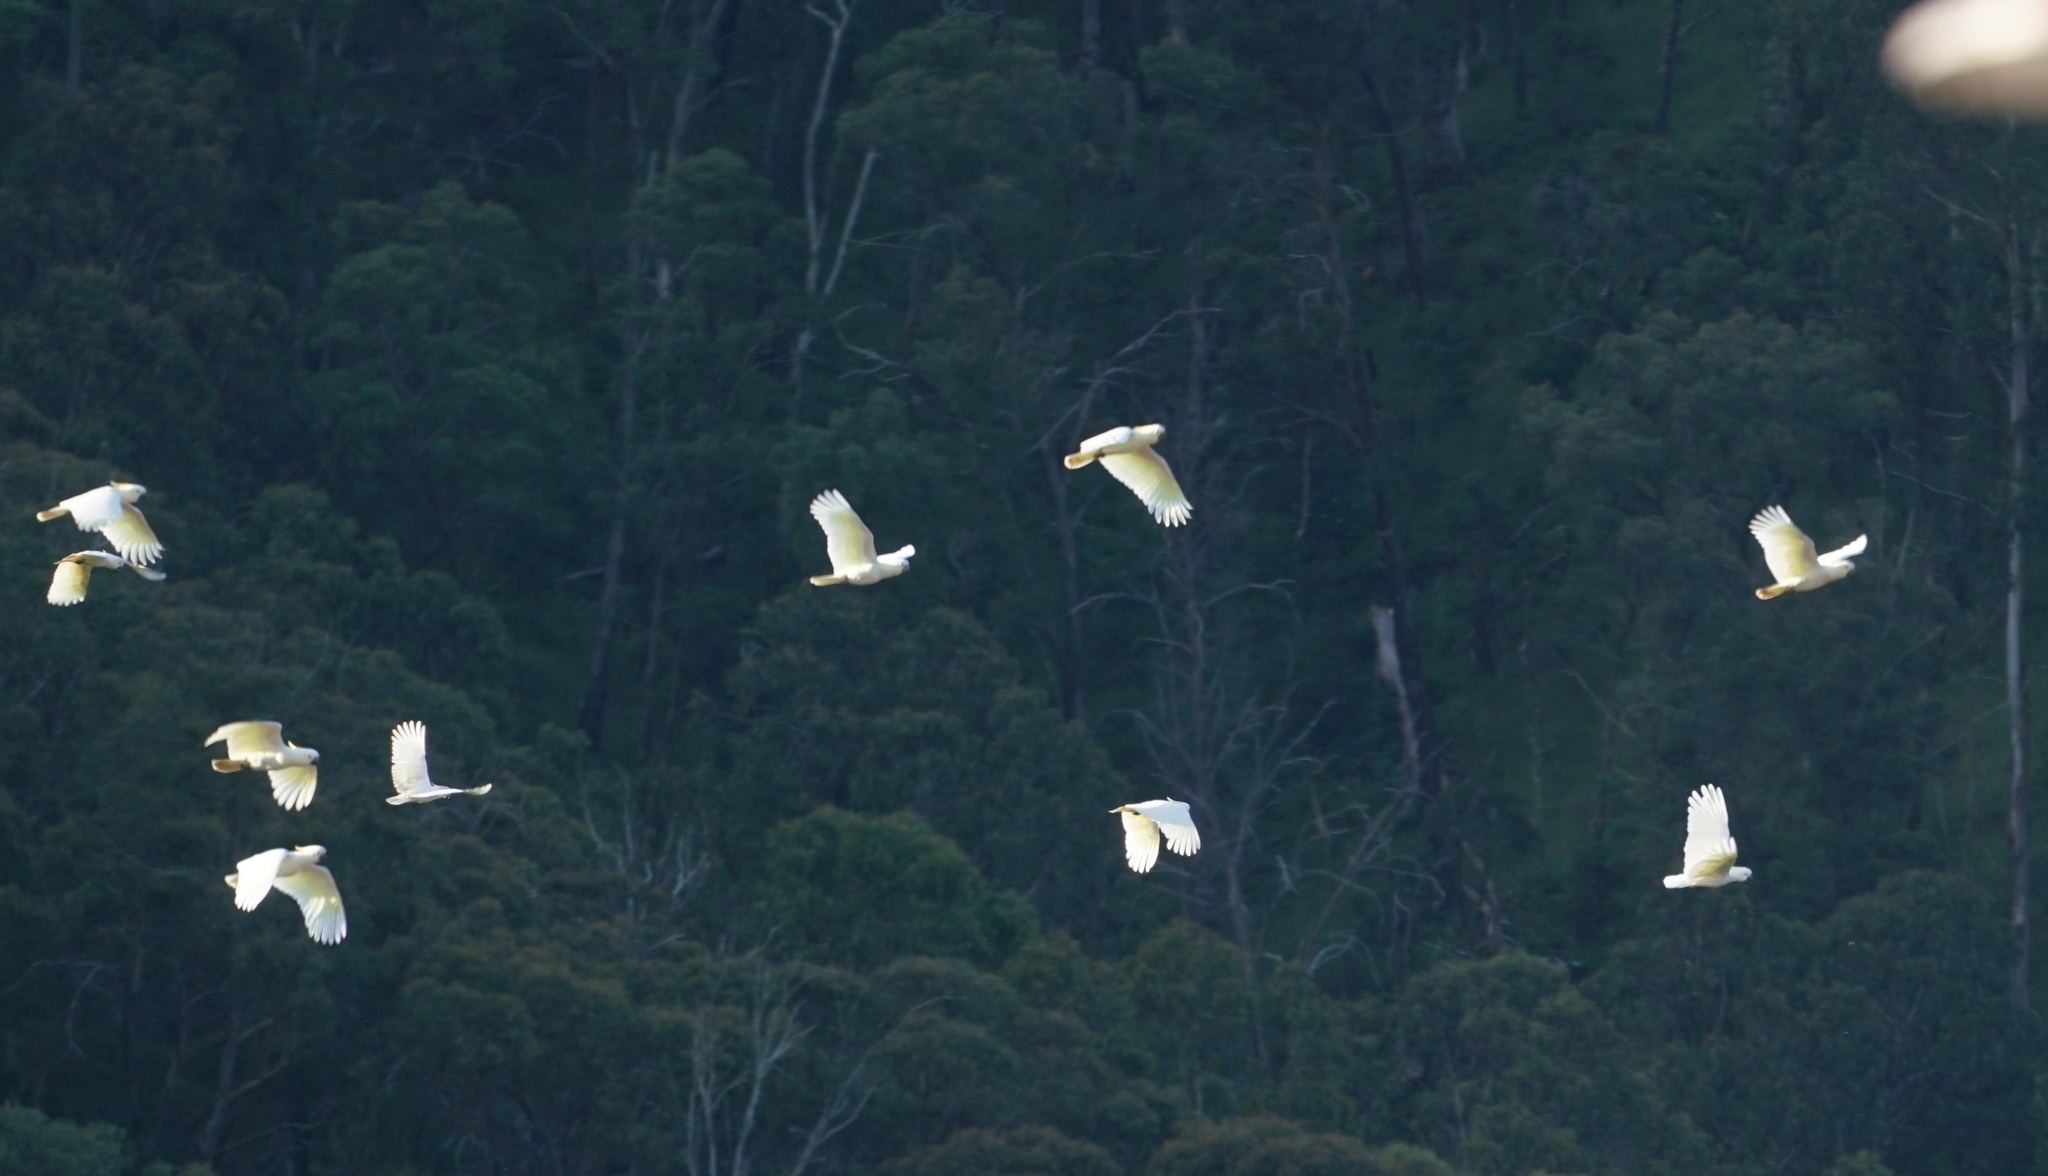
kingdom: Animalia
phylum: Chordata
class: Aves
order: Psittaciformes
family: Psittacidae
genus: Cacatua
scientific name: Cacatua galerita
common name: Sulphur-crested cockatoo
